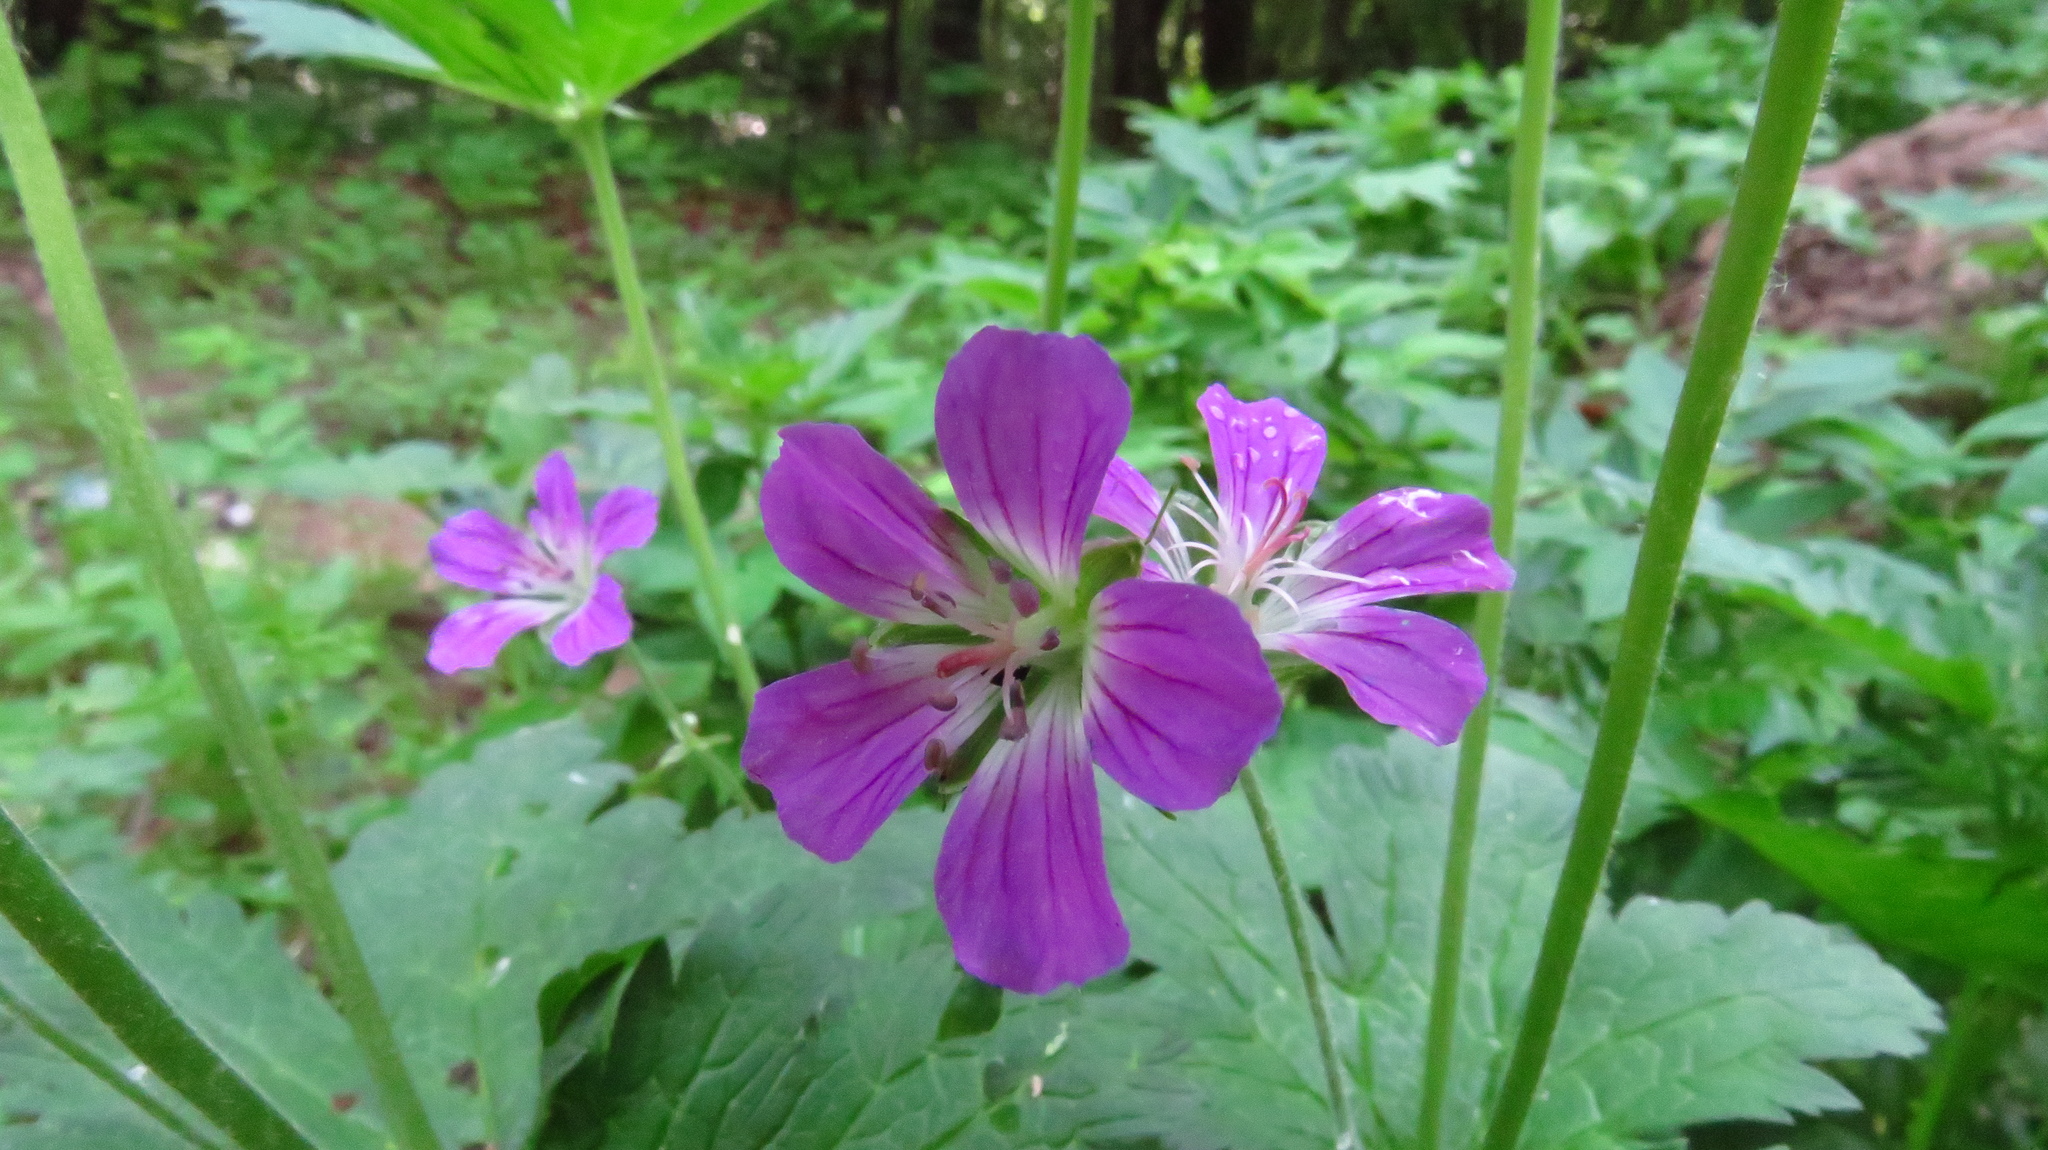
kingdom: Plantae
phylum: Tracheophyta
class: Magnoliopsida
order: Geraniales
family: Geraniaceae
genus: Geranium
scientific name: Geranium sylvaticum
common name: Wood crane's-bill
